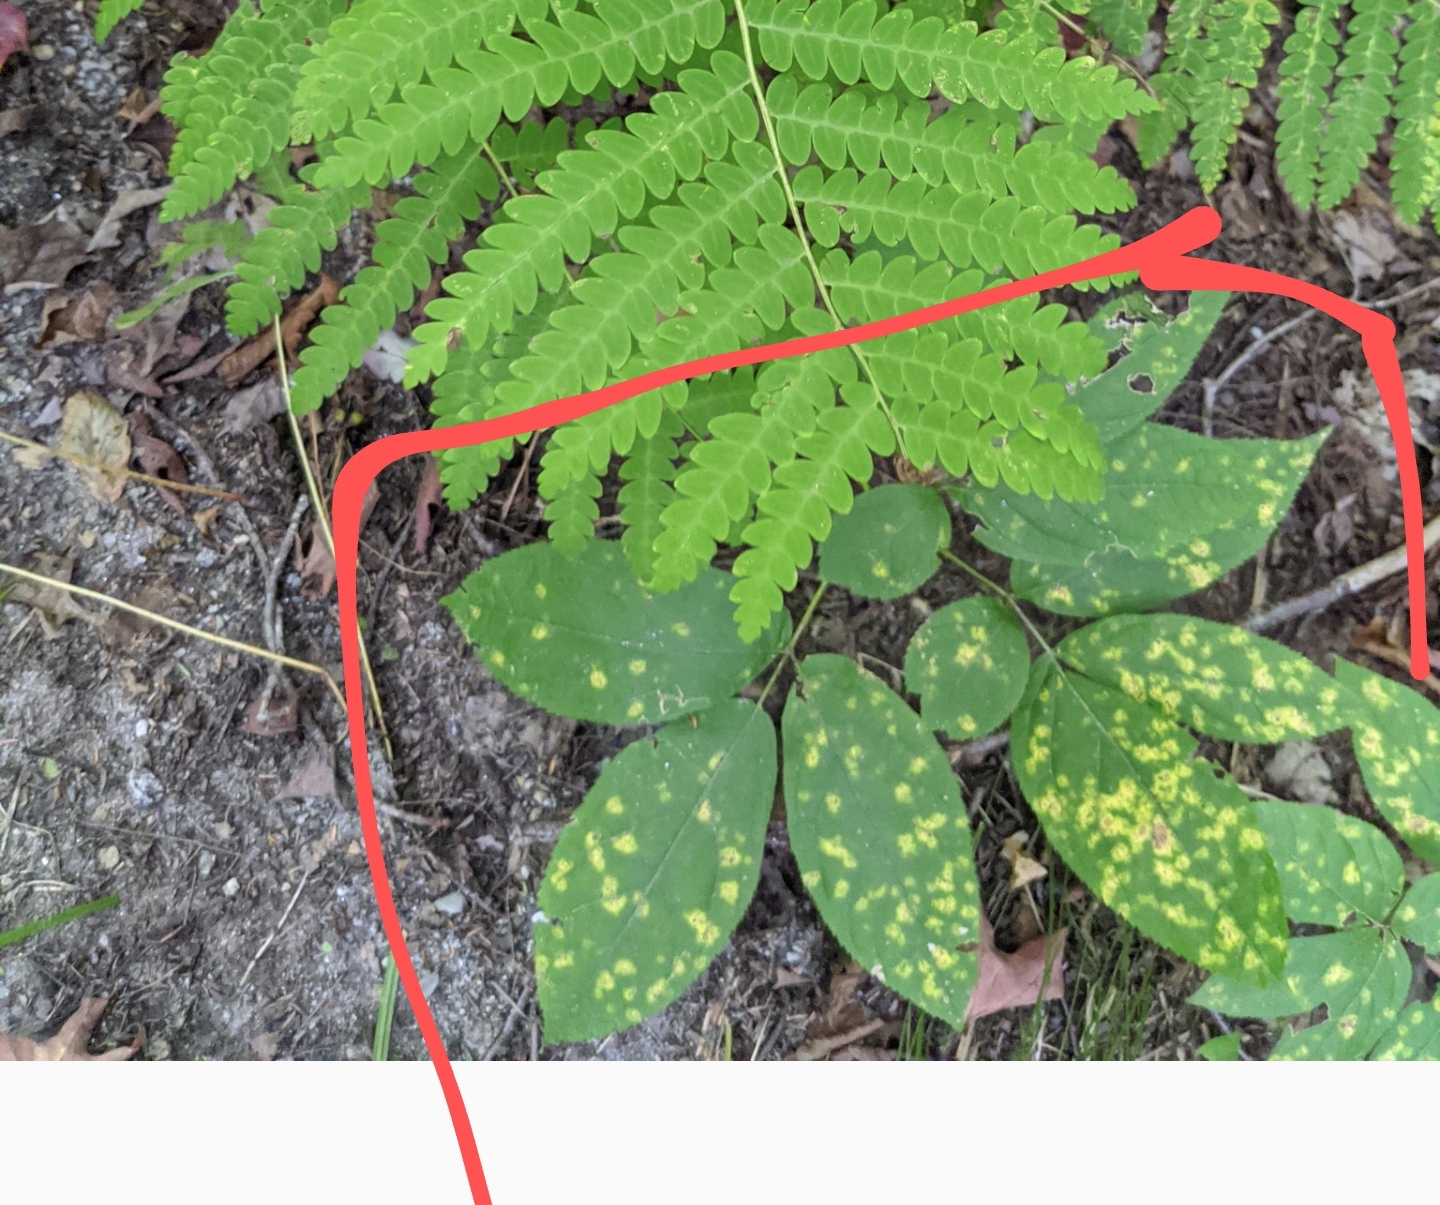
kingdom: Plantae
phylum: Tracheophyta
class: Magnoliopsida
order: Apiales
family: Araliaceae
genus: Aralia
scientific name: Aralia nudicaulis
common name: Wild sarsaparilla
